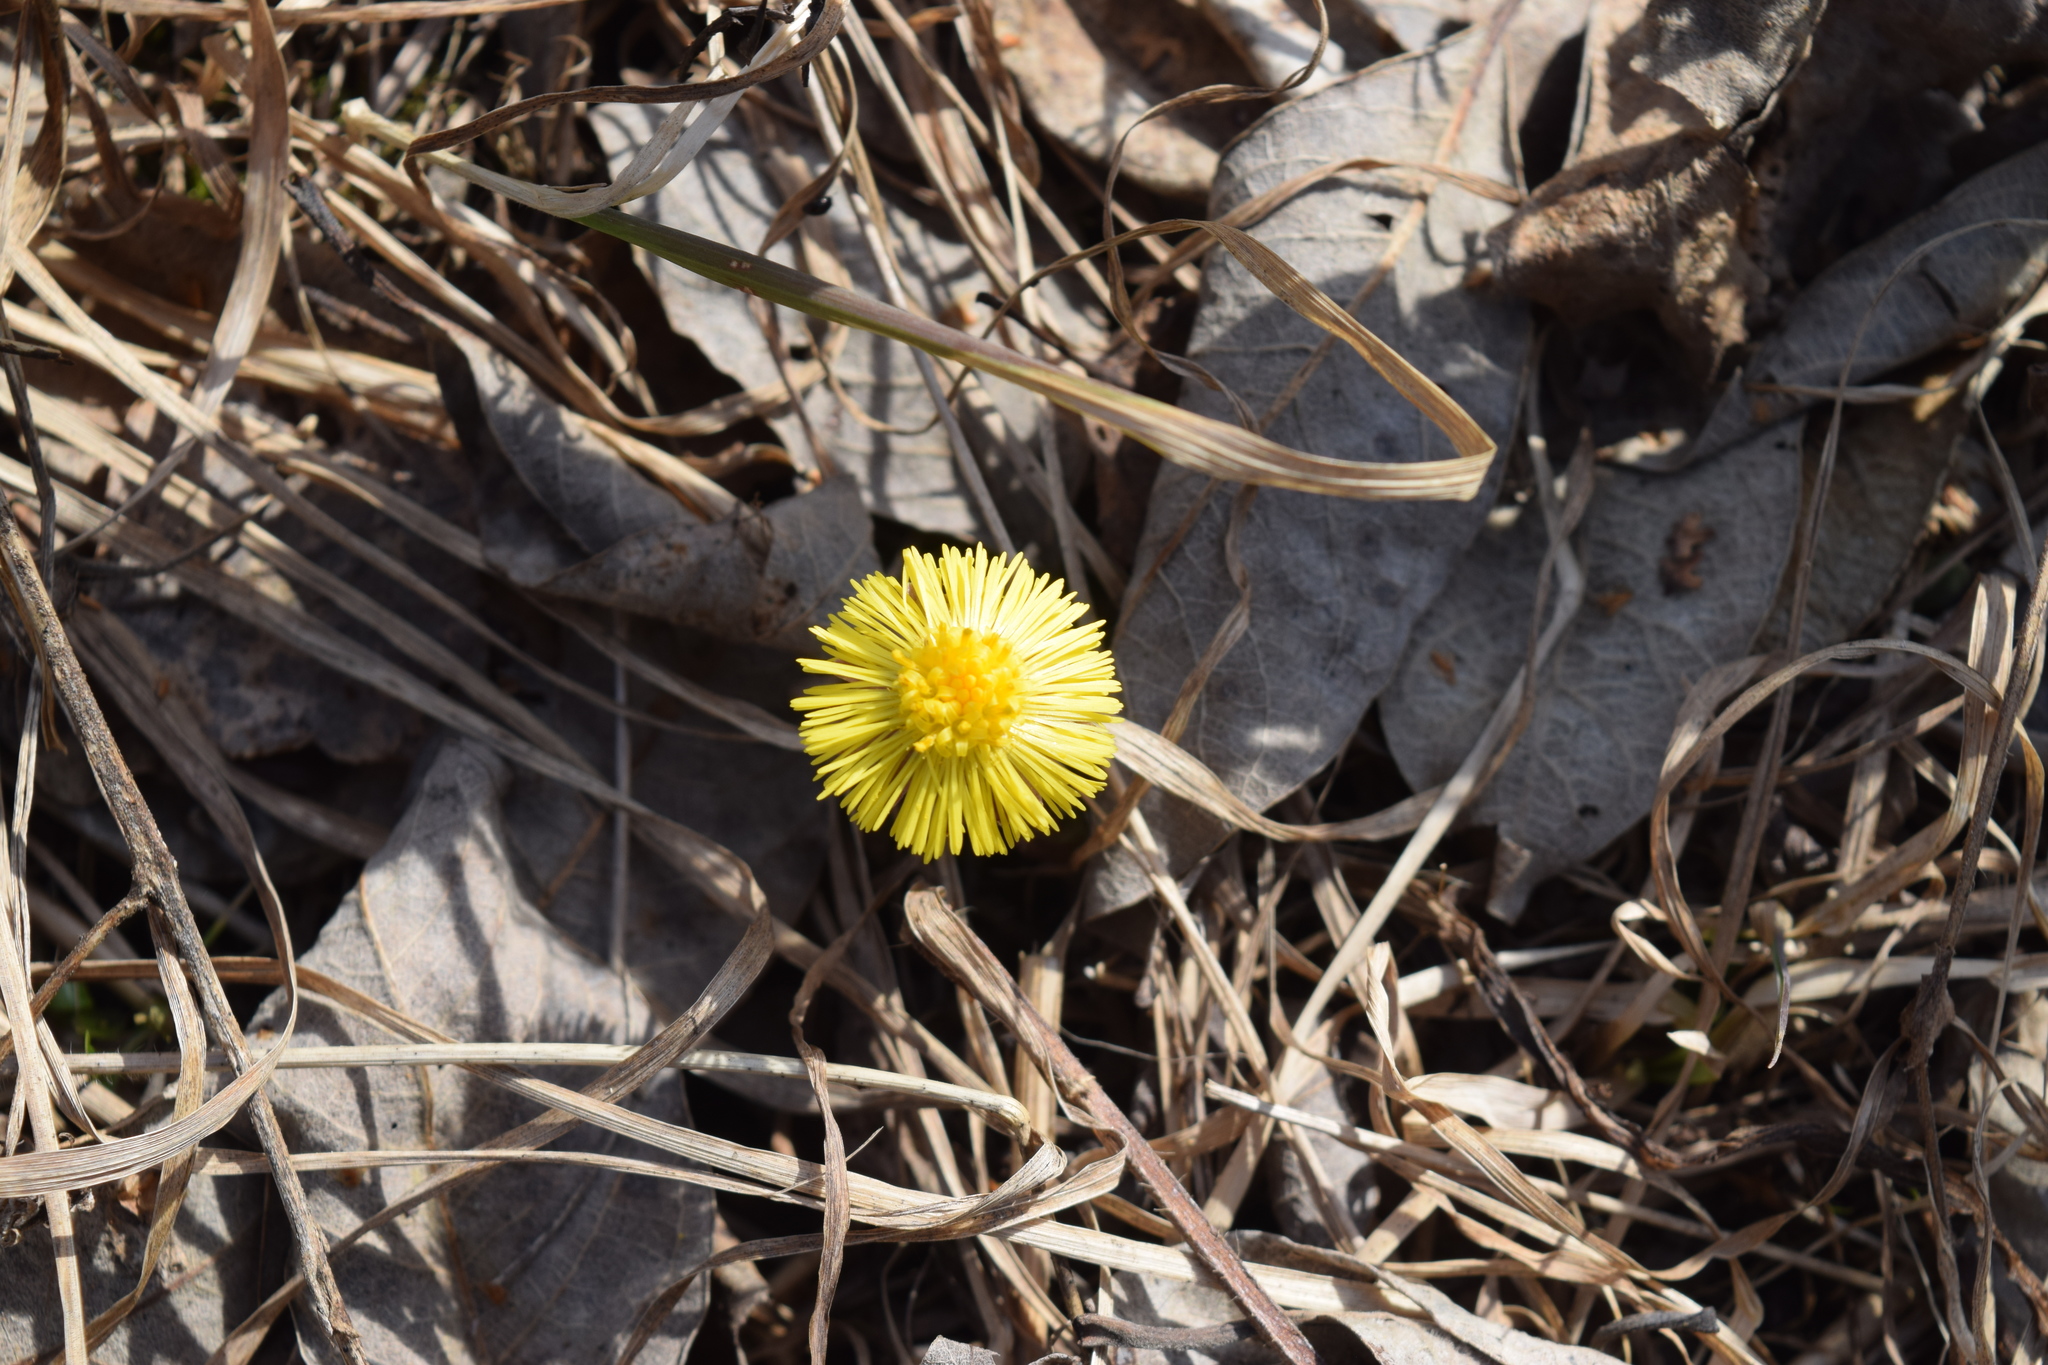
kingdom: Plantae
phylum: Tracheophyta
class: Magnoliopsida
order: Asterales
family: Asteraceae
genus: Tussilago
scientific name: Tussilago farfara
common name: Coltsfoot
